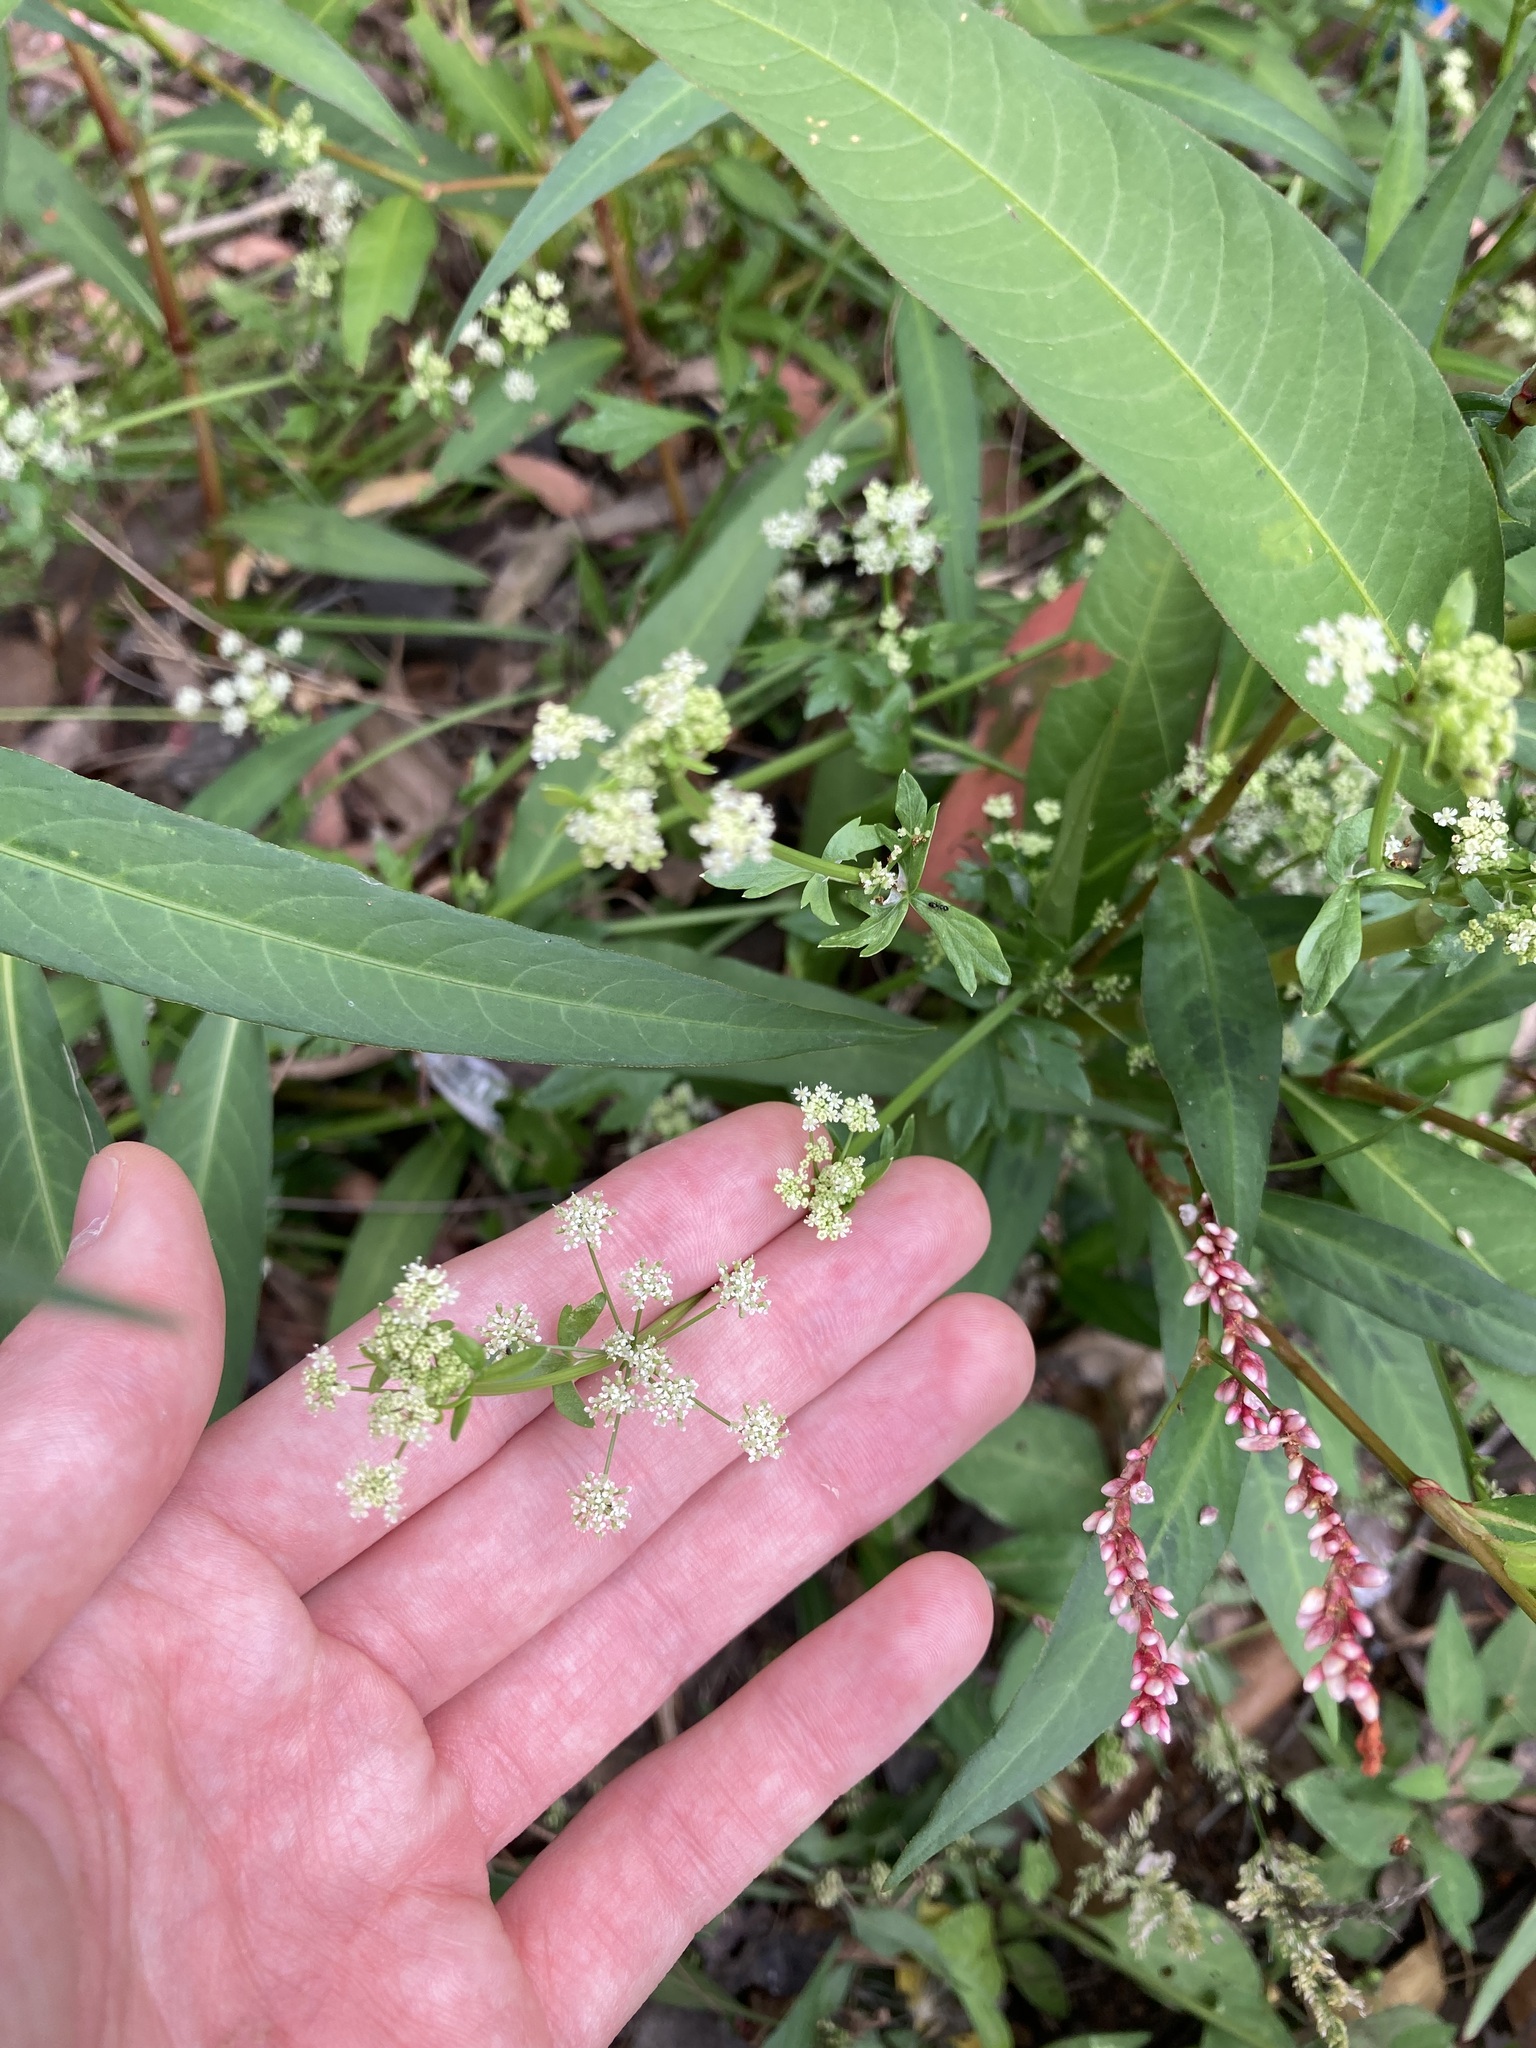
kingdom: Plantae
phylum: Tracheophyta
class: Magnoliopsida
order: Apiales
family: Apiaceae
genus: Apium
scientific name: Apium graveolens
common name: Wild celery
